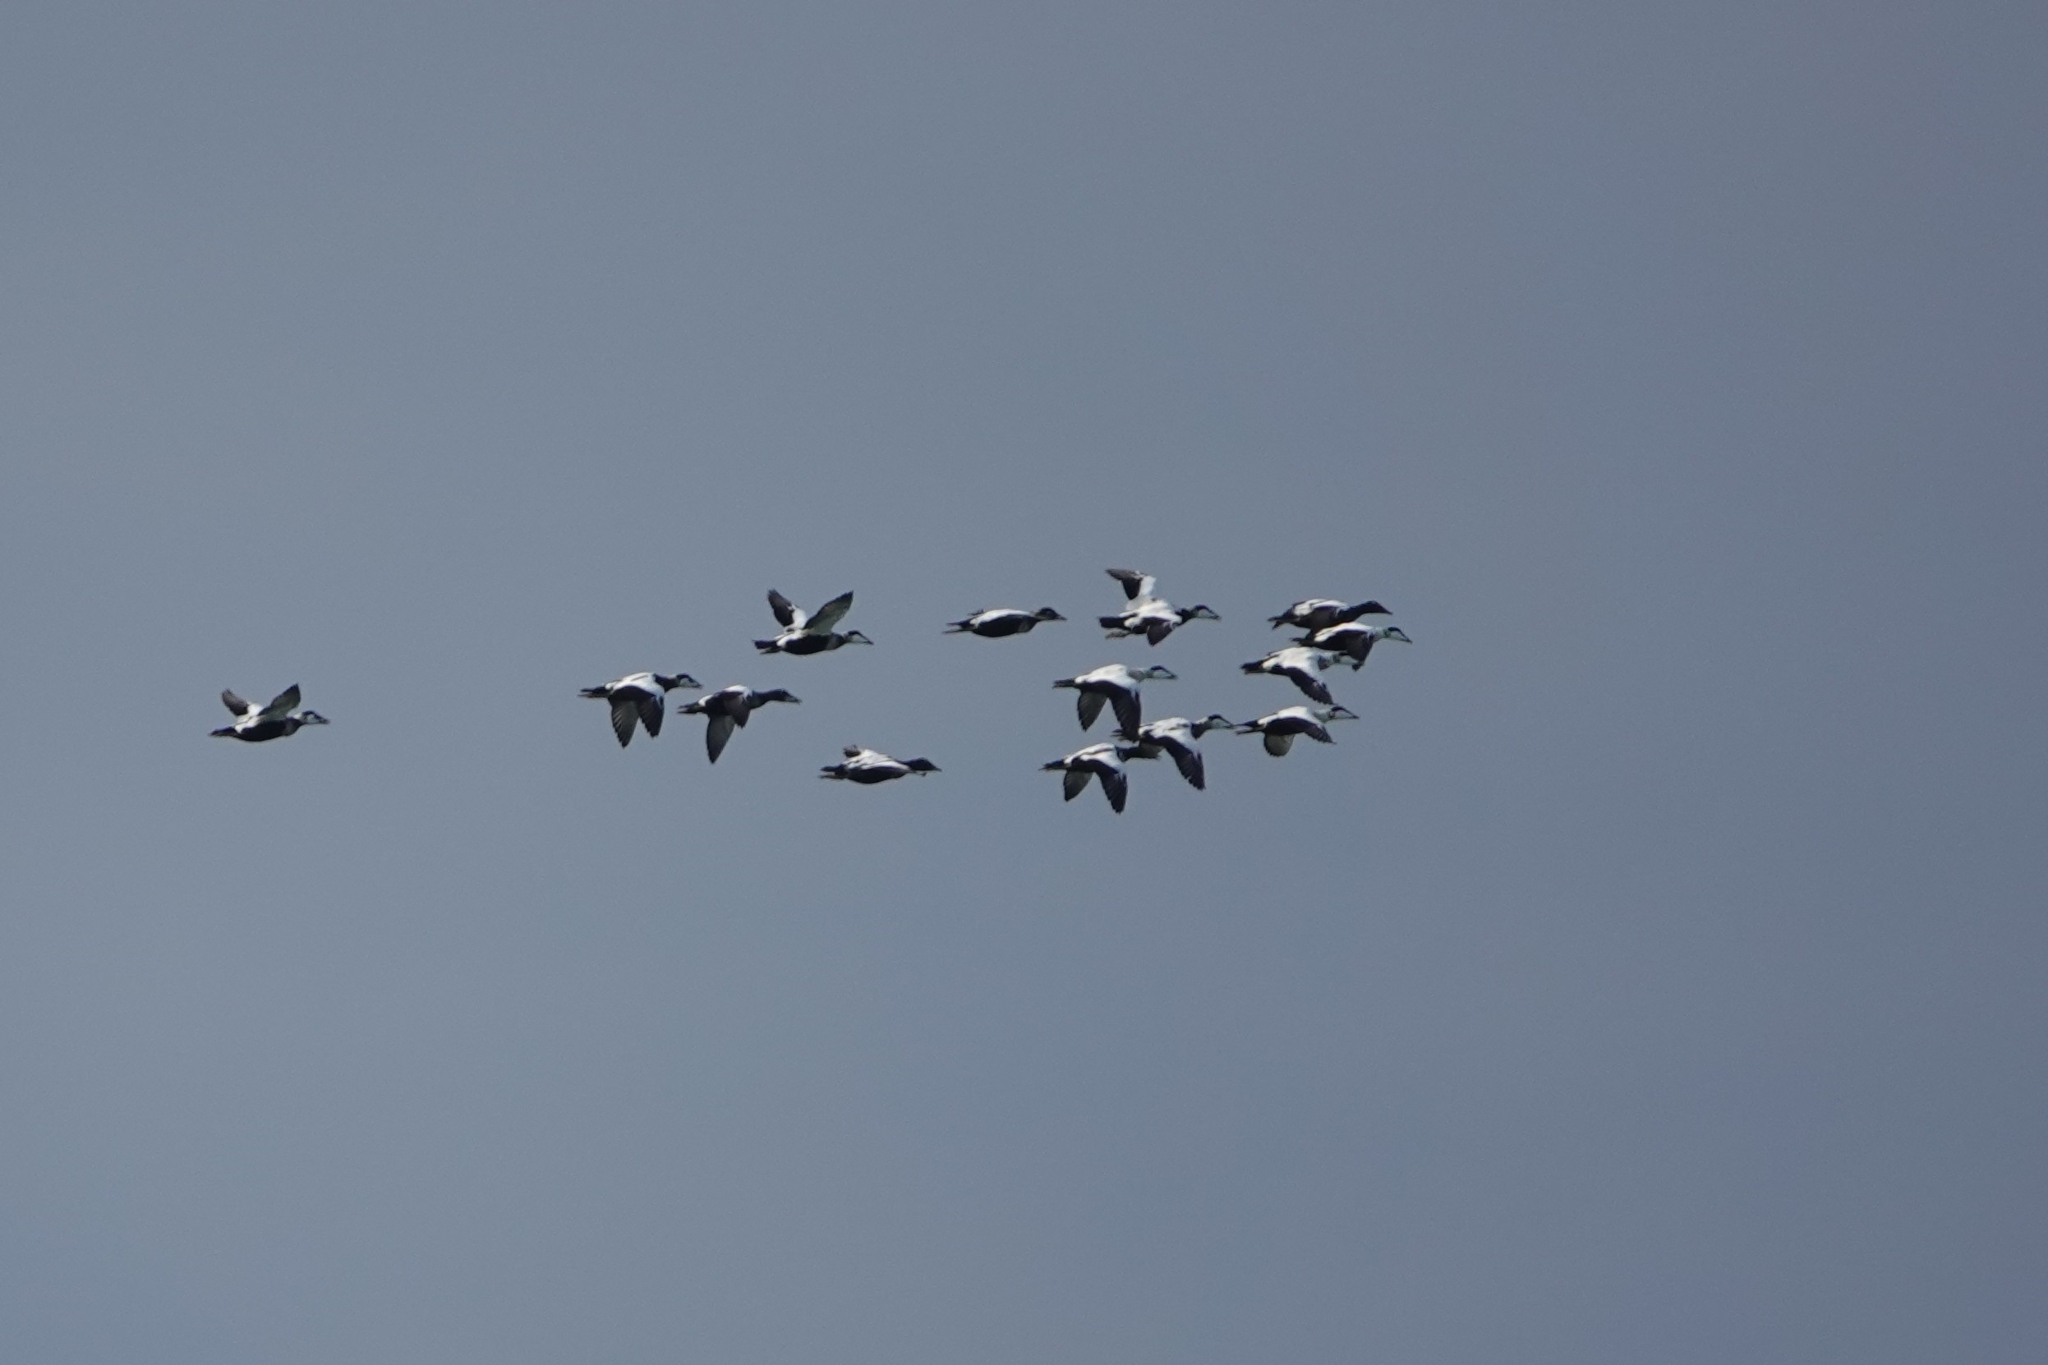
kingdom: Animalia
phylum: Chordata
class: Aves
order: Anseriformes
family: Anatidae
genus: Somateria
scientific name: Somateria mollissima
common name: Common eider
